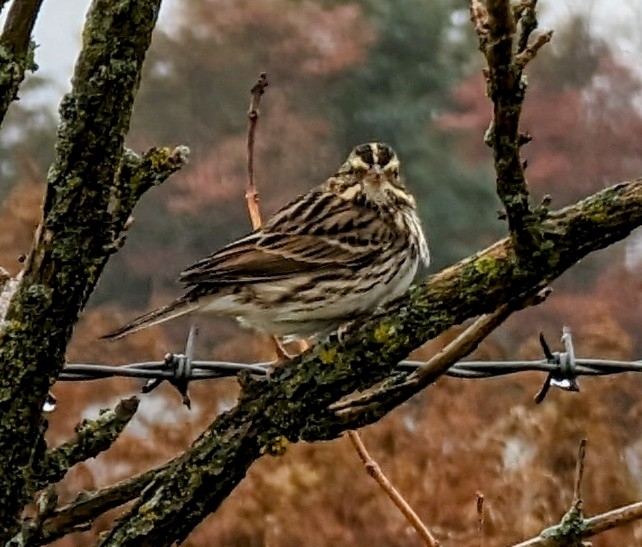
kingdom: Animalia
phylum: Chordata
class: Aves
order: Passeriformes
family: Passerellidae
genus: Passerculus
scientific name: Passerculus sandwichensis
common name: Savannah sparrow
